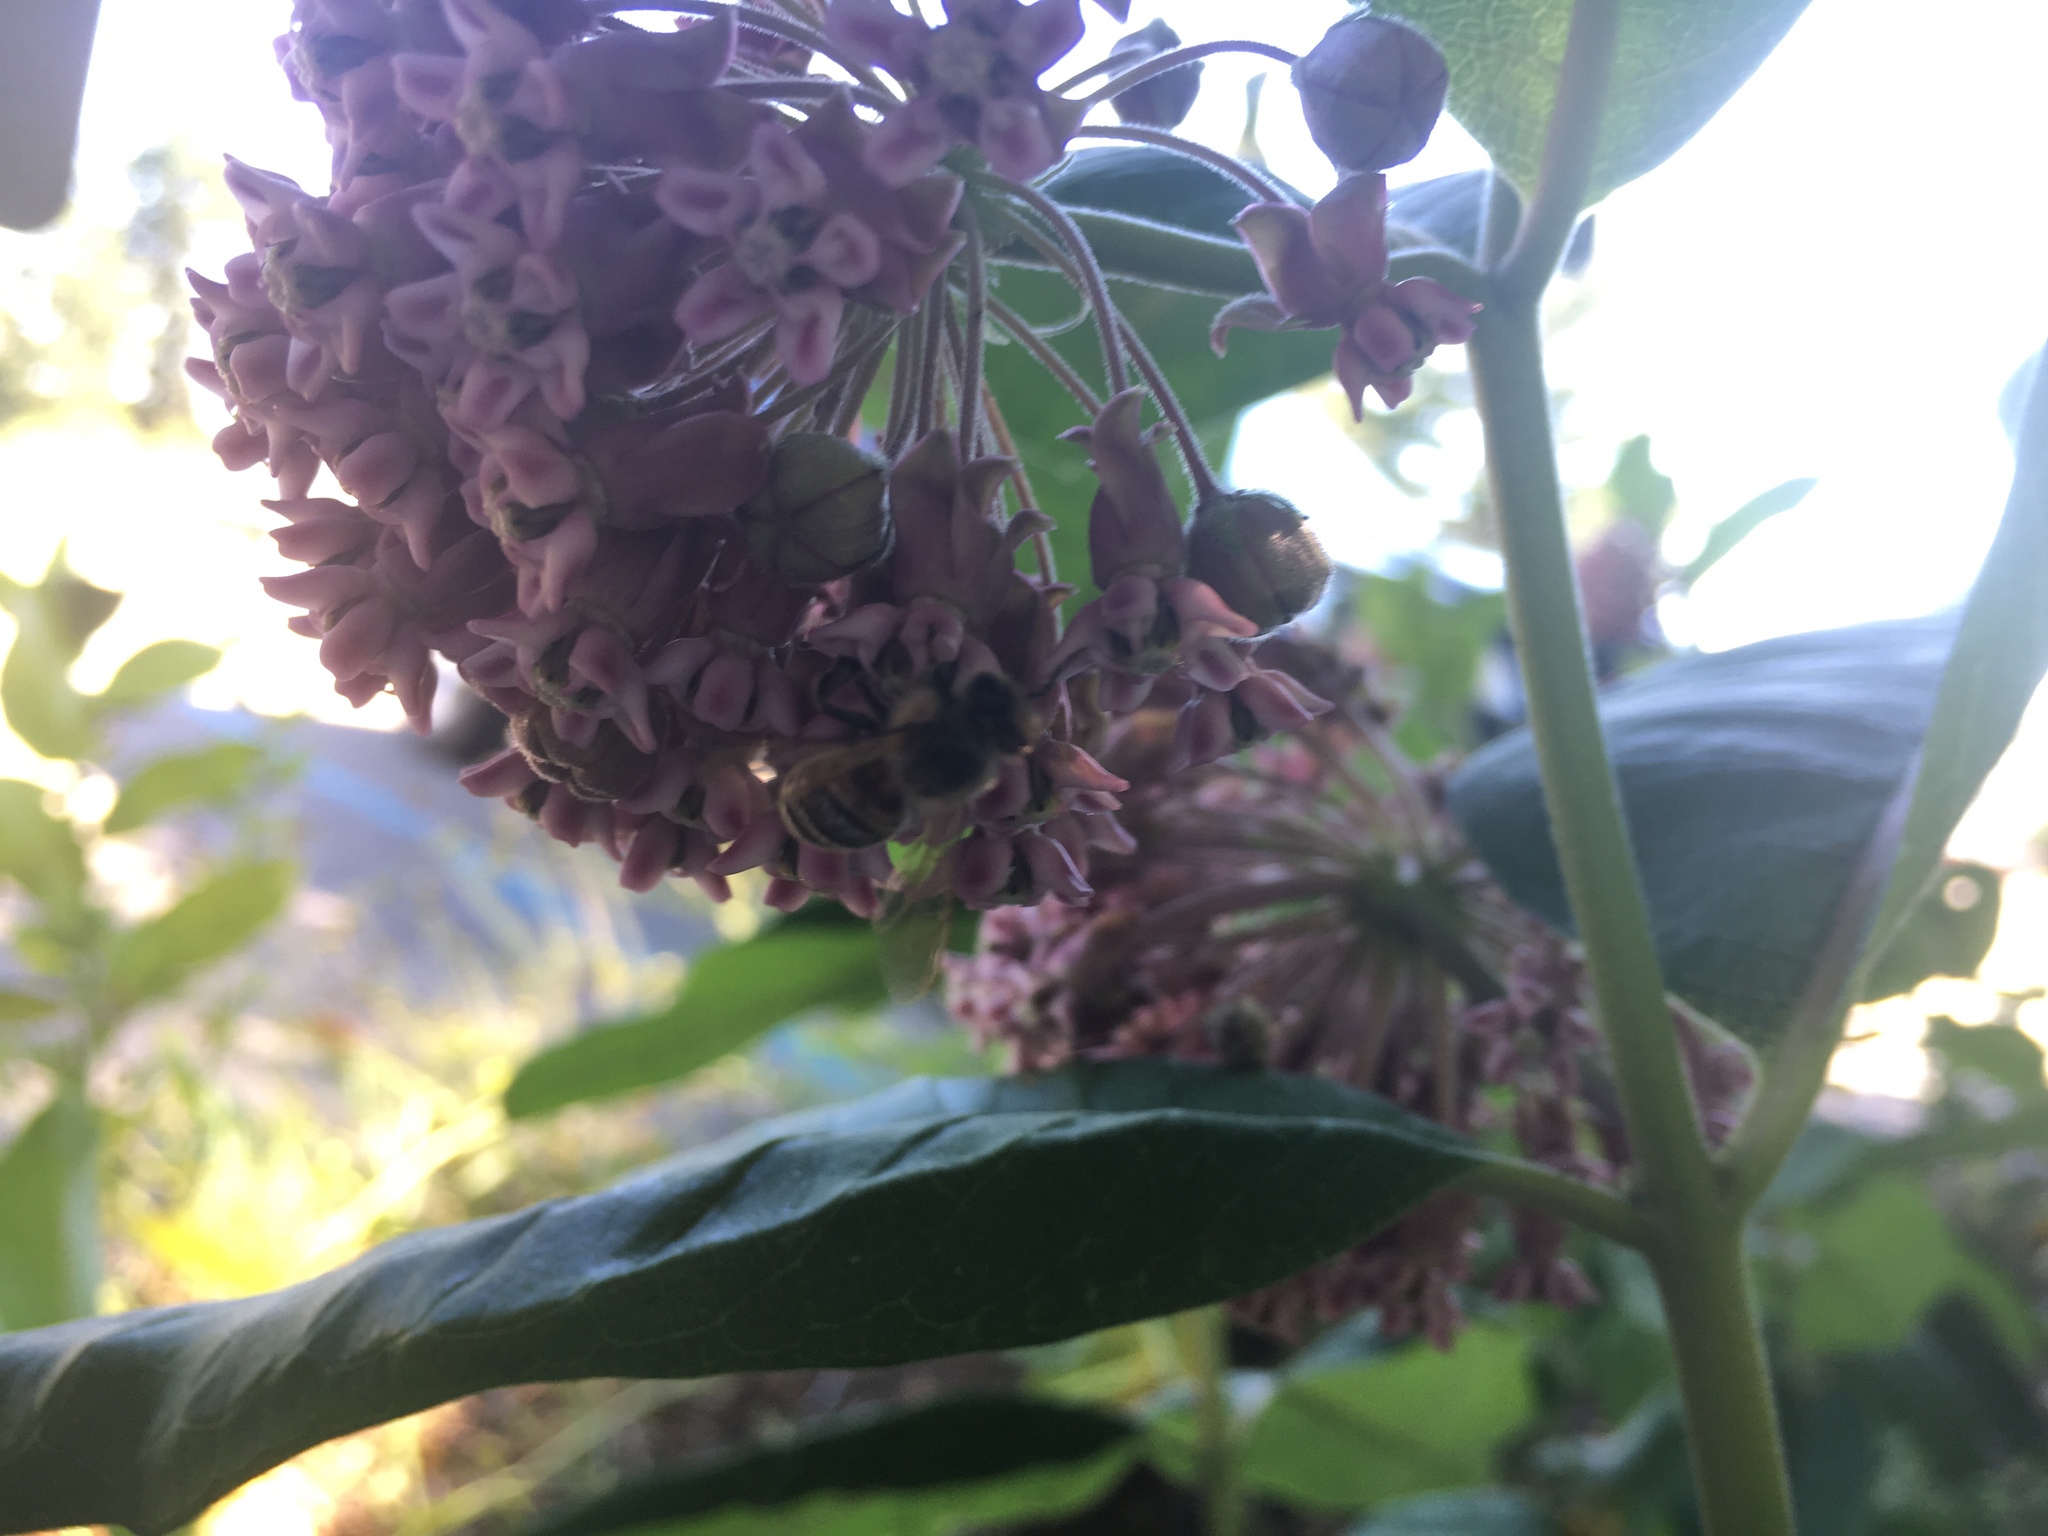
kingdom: Animalia
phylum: Arthropoda
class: Insecta
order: Hymenoptera
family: Apidae
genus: Apis
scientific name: Apis mellifera
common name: Honey bee
